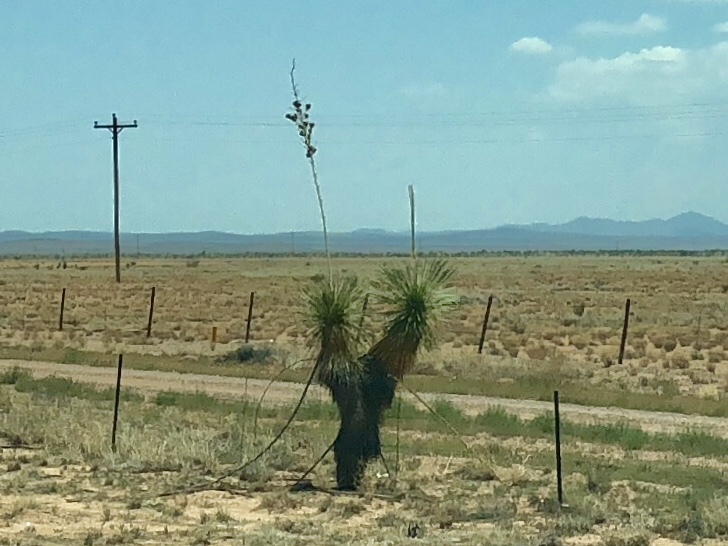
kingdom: Plantae
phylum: Tracheophyta
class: Liliopsida
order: Asparagales
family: Asparagaceae
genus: Yucca
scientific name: Yucca elata
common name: Palmella
